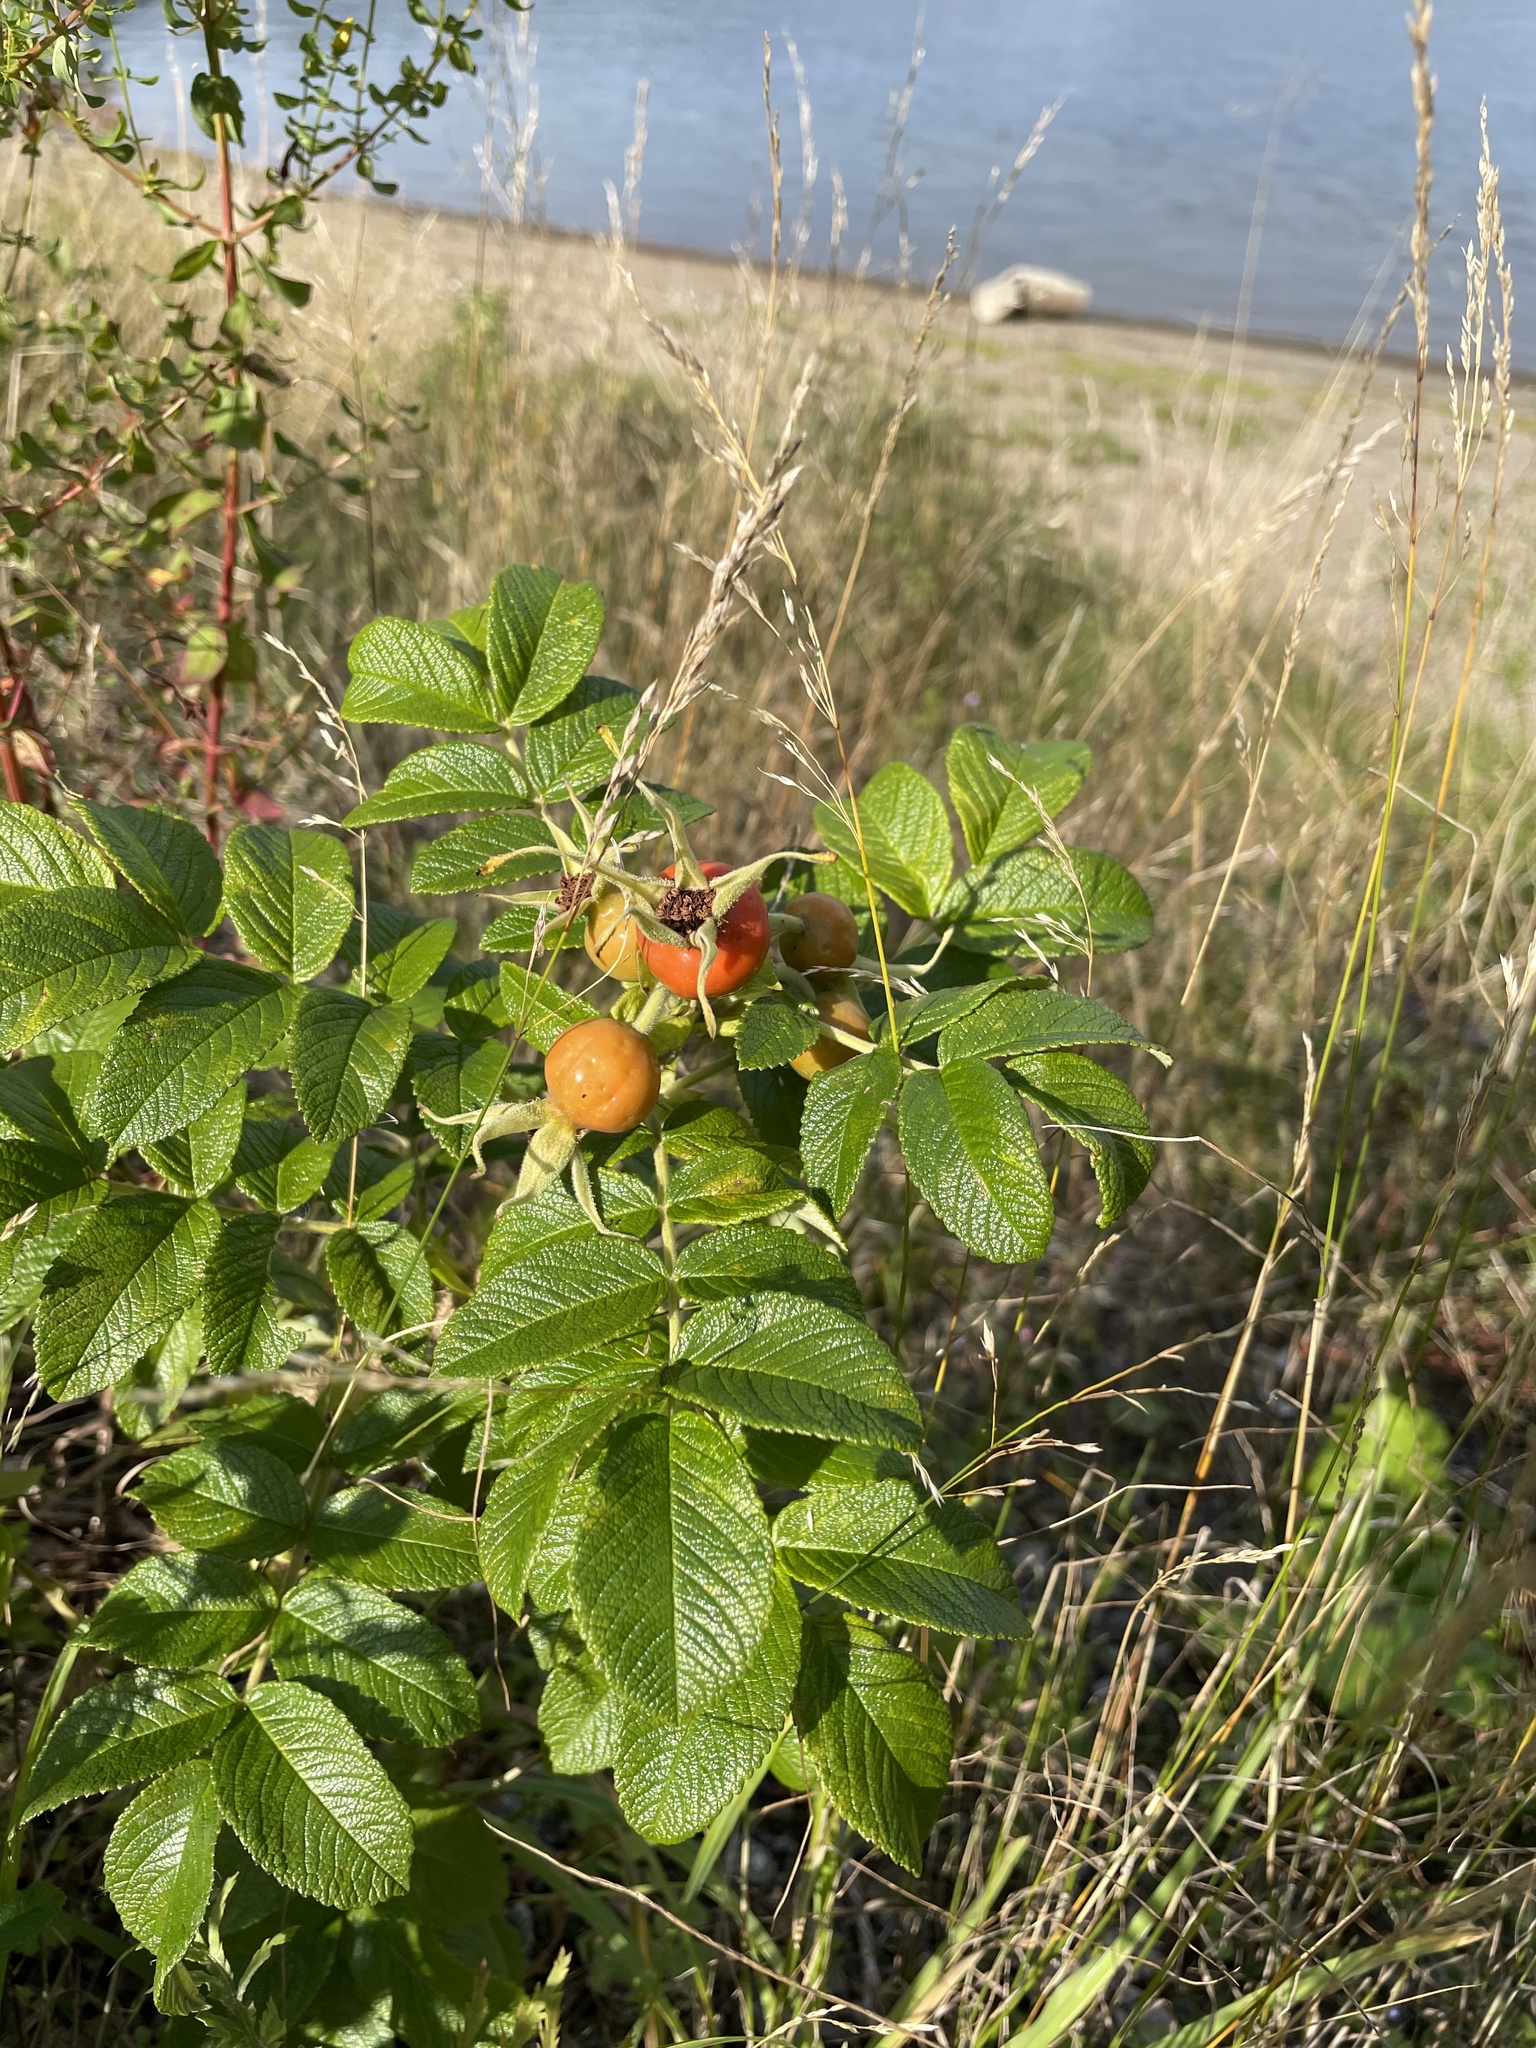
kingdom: Plantae
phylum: Tracheophyta
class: Magnoliopsida
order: Rosales
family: Rosaceae
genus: Rosa
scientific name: Rosa rugosa
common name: Japanese rose
